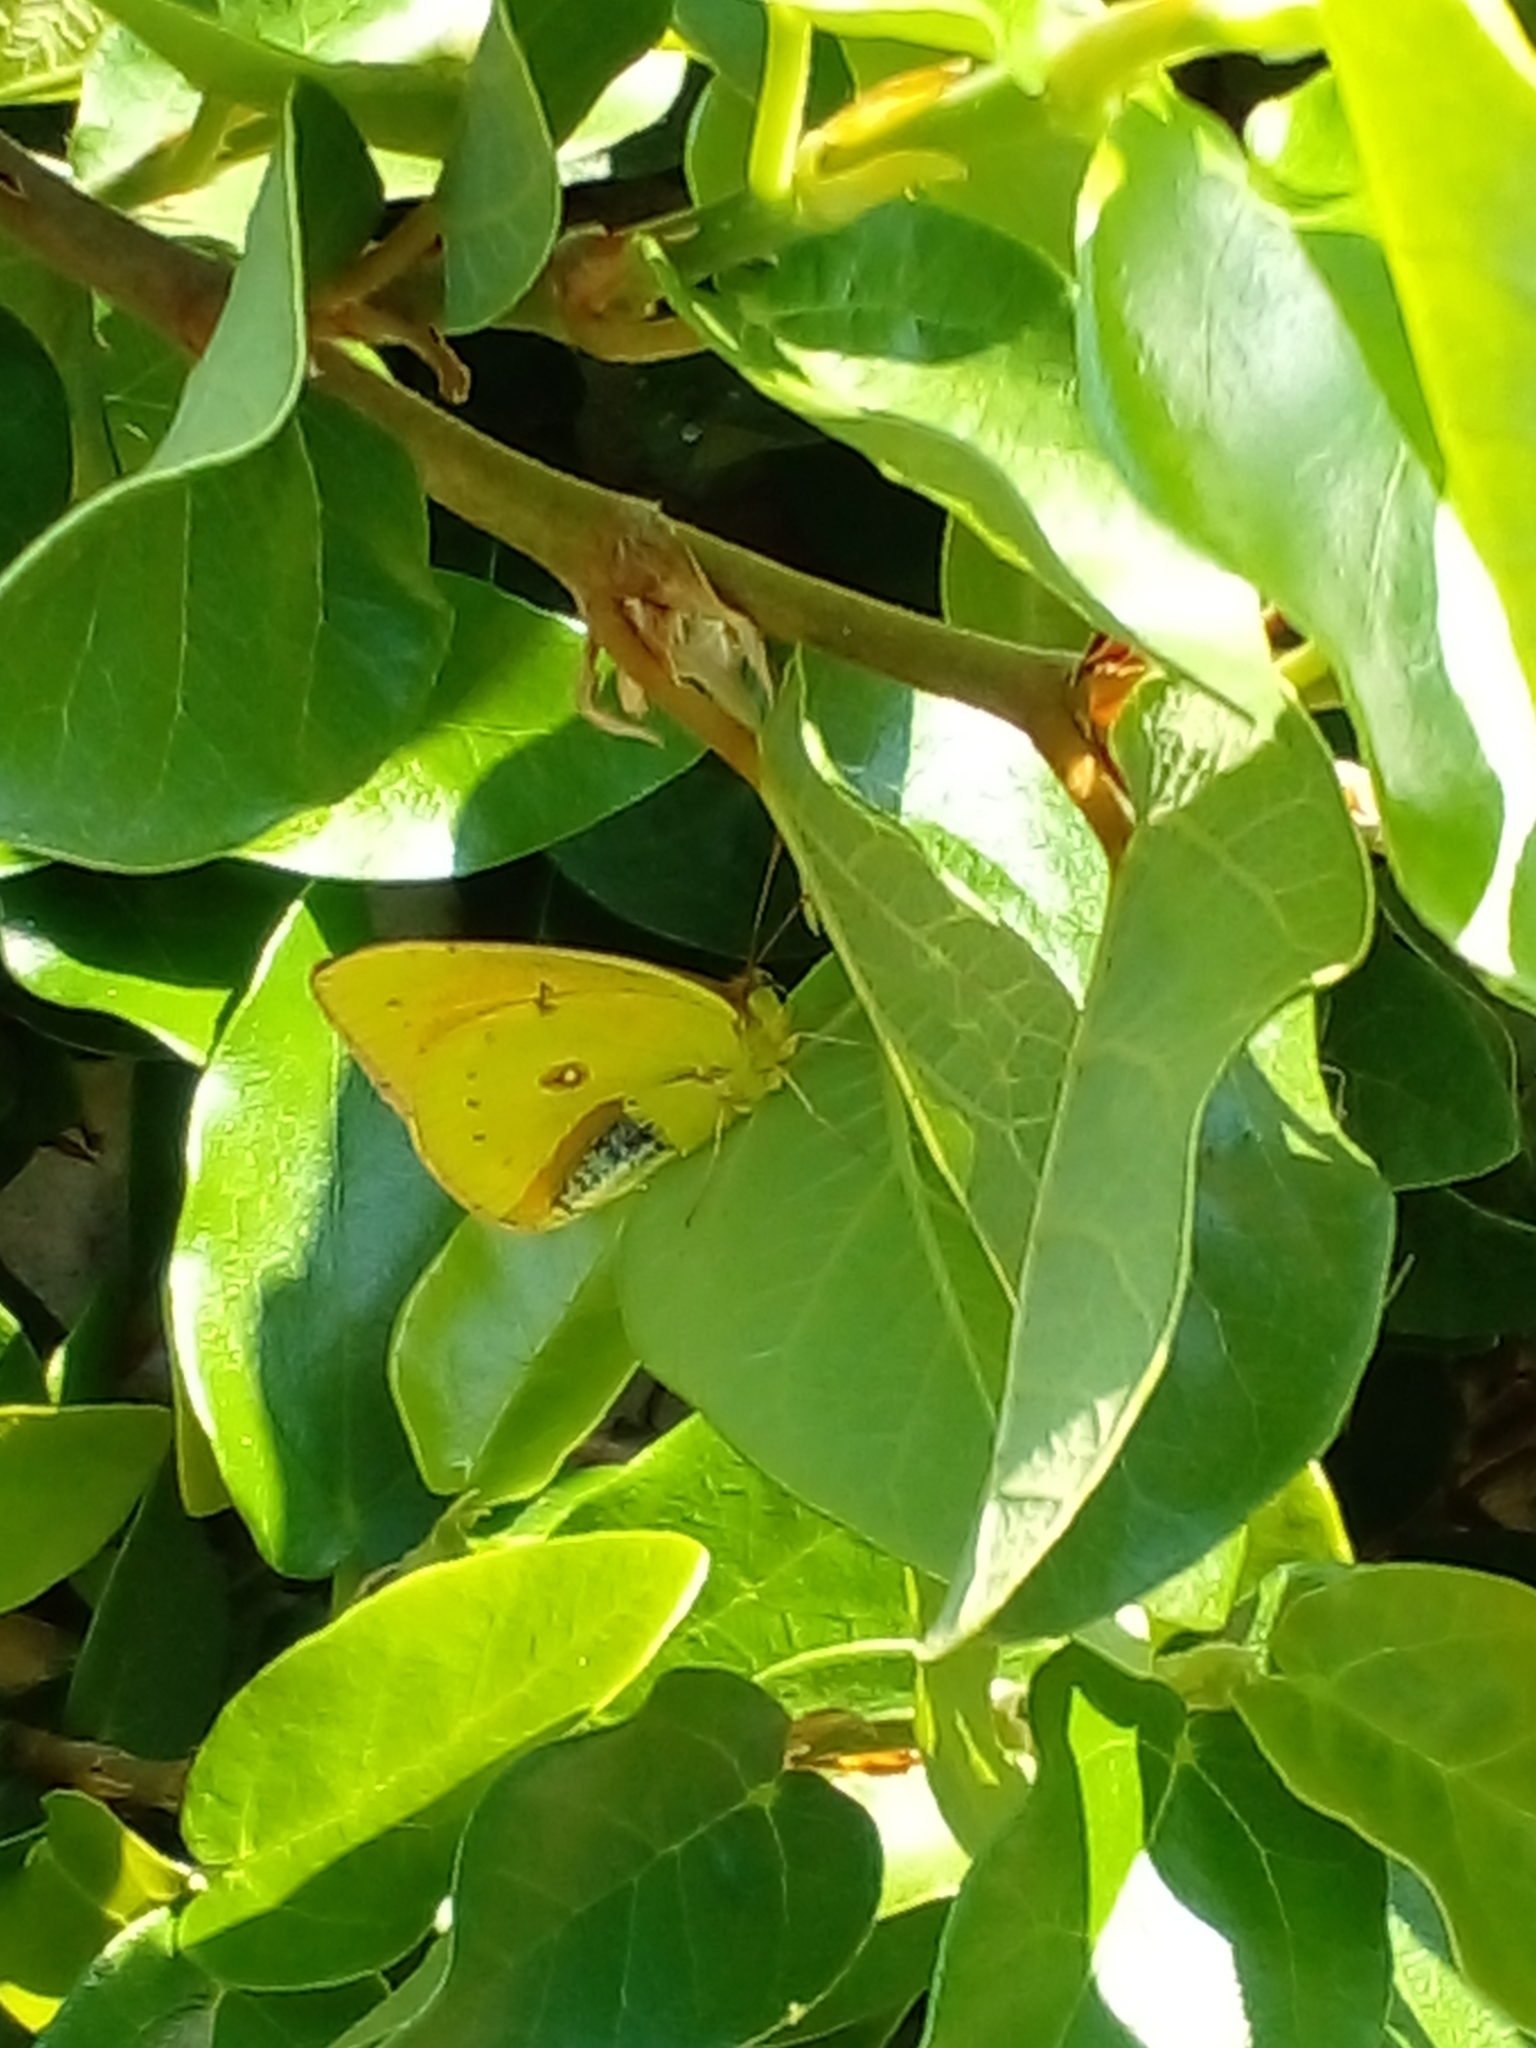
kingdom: Animalia
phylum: Arthropoda
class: Insecta
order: Lepidoptera
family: Pieridae
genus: Colias
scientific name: Colias lesbia
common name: Lesbia clouded yellow
